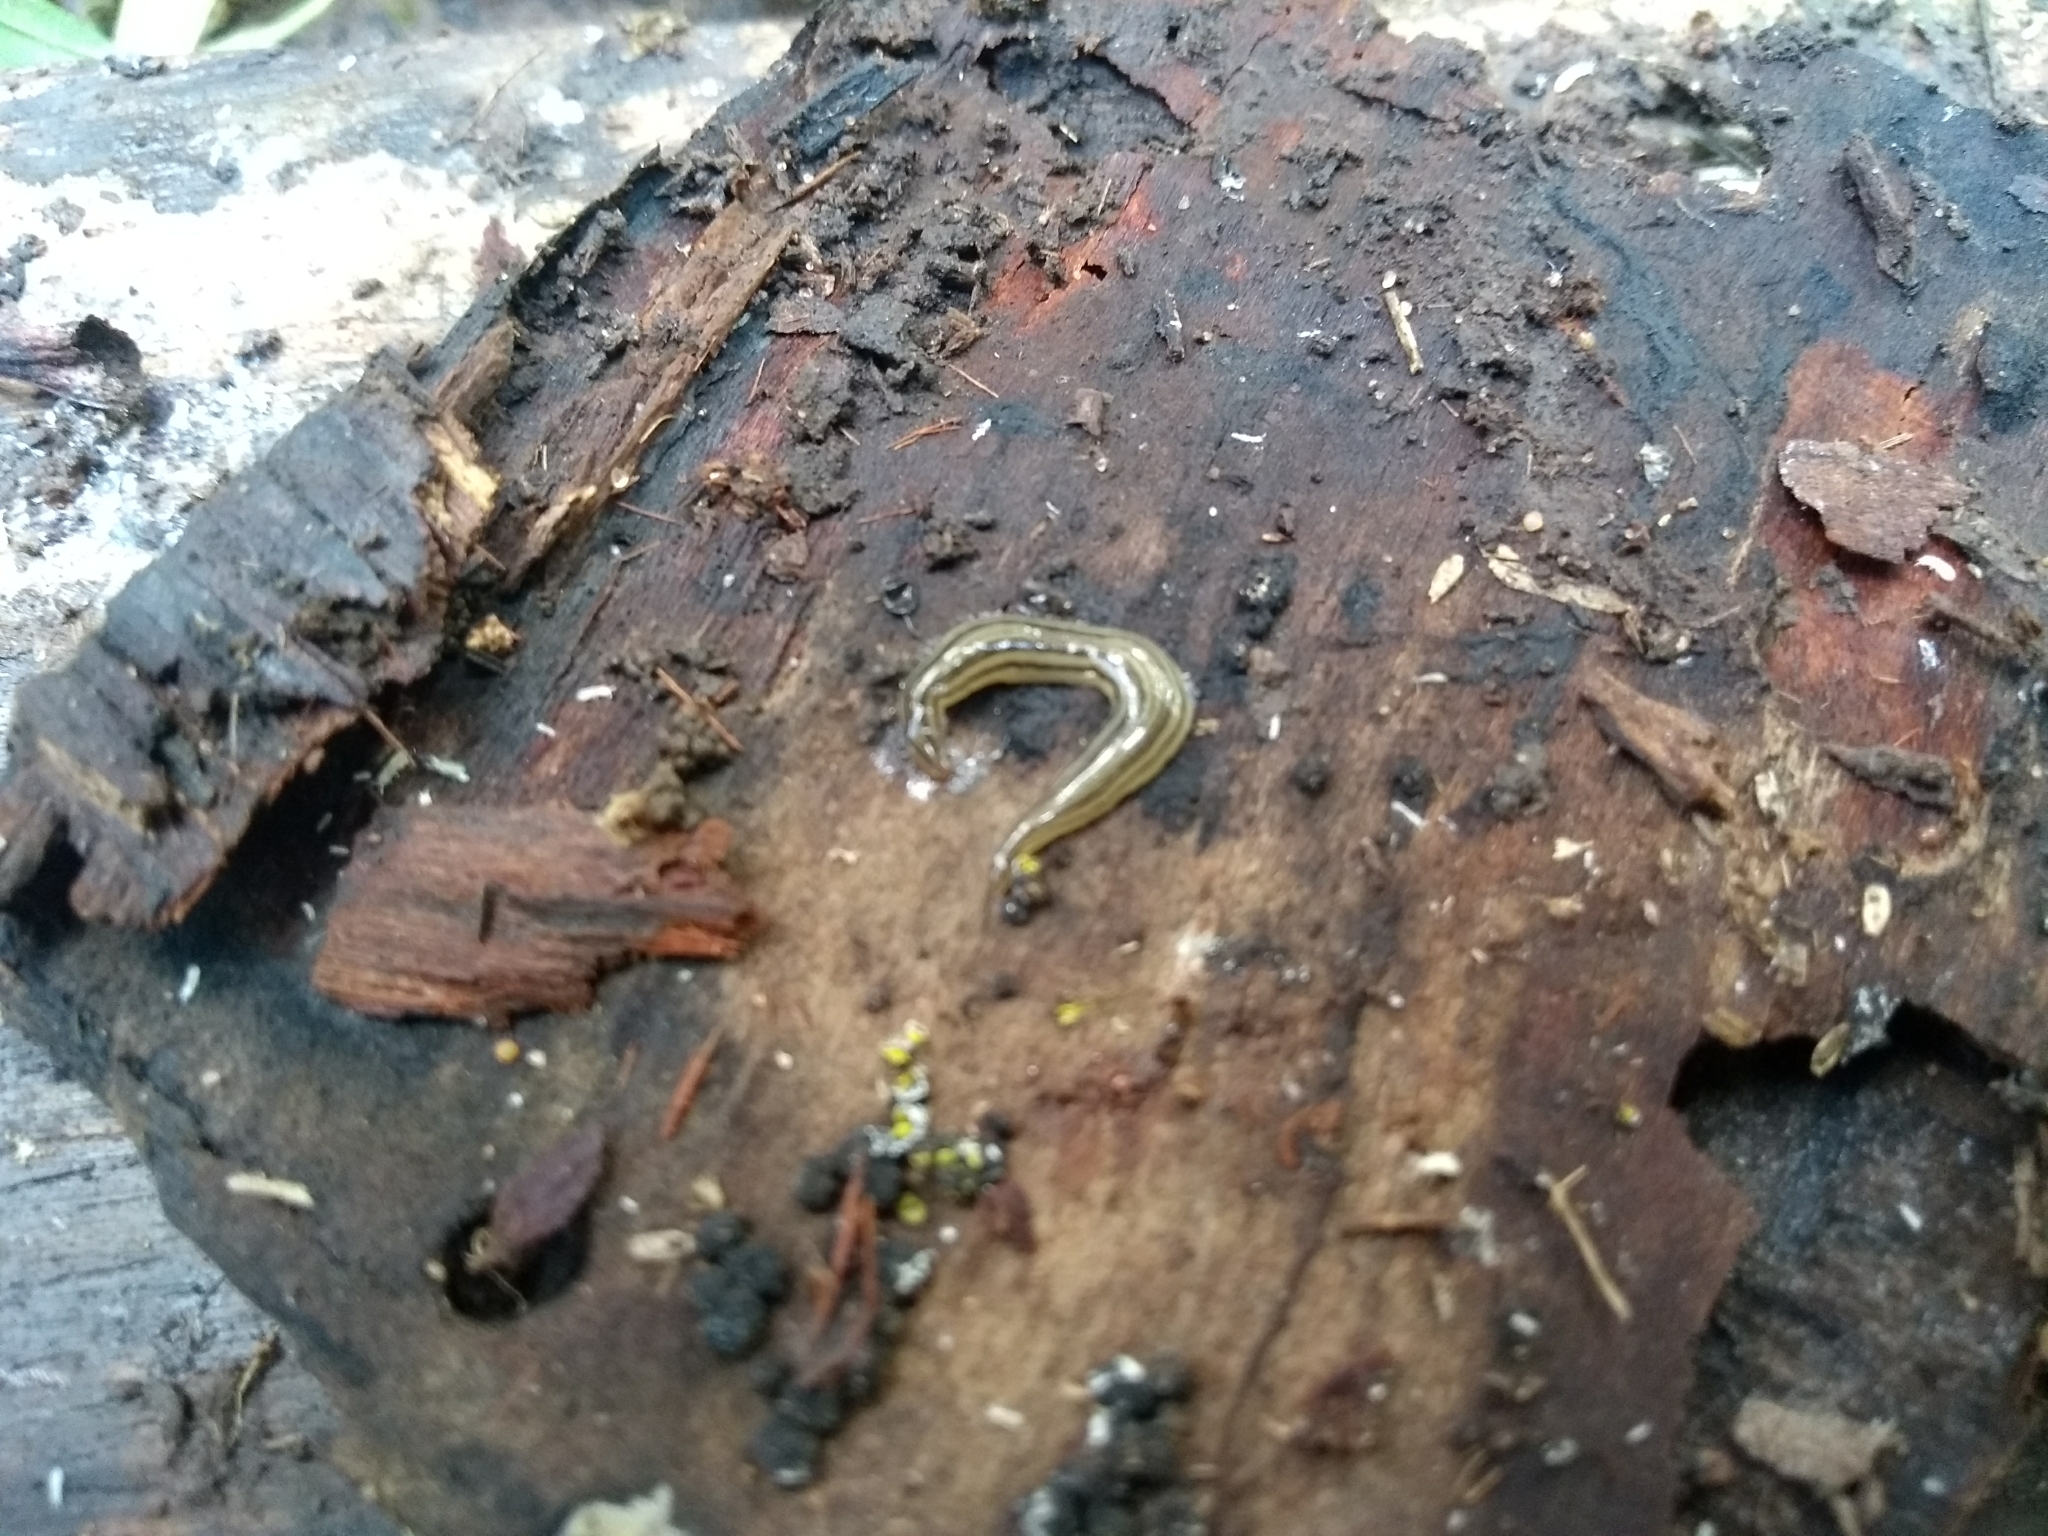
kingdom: Animalia
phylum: Platyhelminthes
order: Tricladida
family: Geoplanidae
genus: Luteostriata
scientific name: Luteostriata abundans
